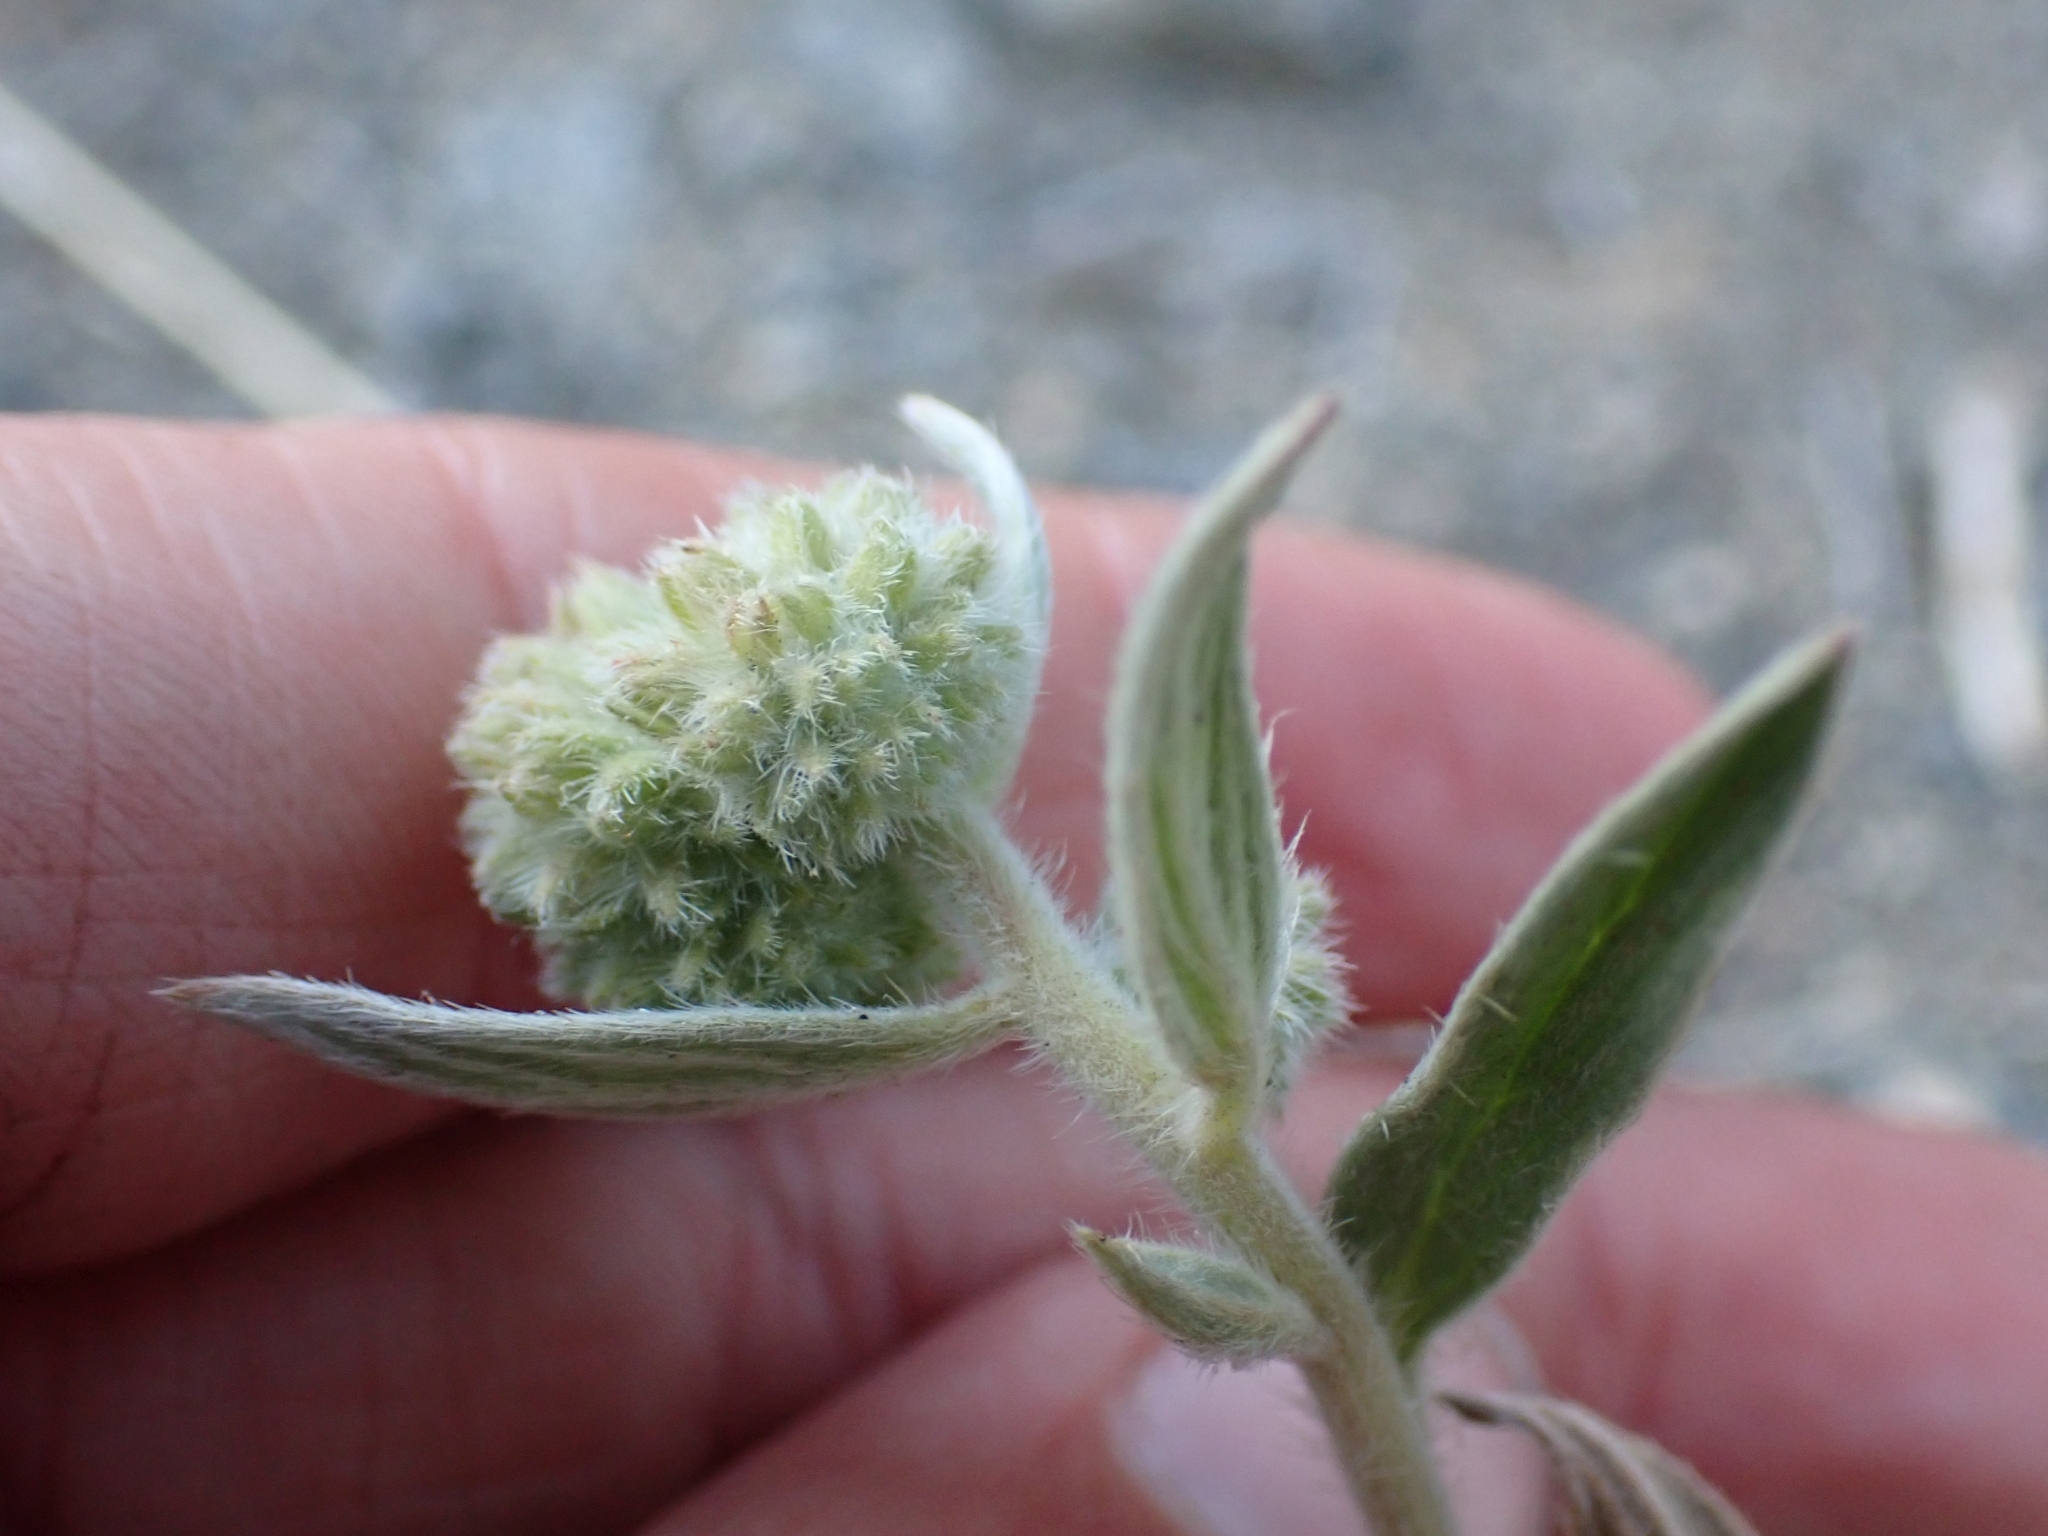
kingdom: Plantae
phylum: Tracheophyta
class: Magnoliopsida
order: Boraginales
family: Hydrophyllaceae
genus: Phacelia
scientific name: Phacelia hastata
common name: Silver-leaved phacelia
